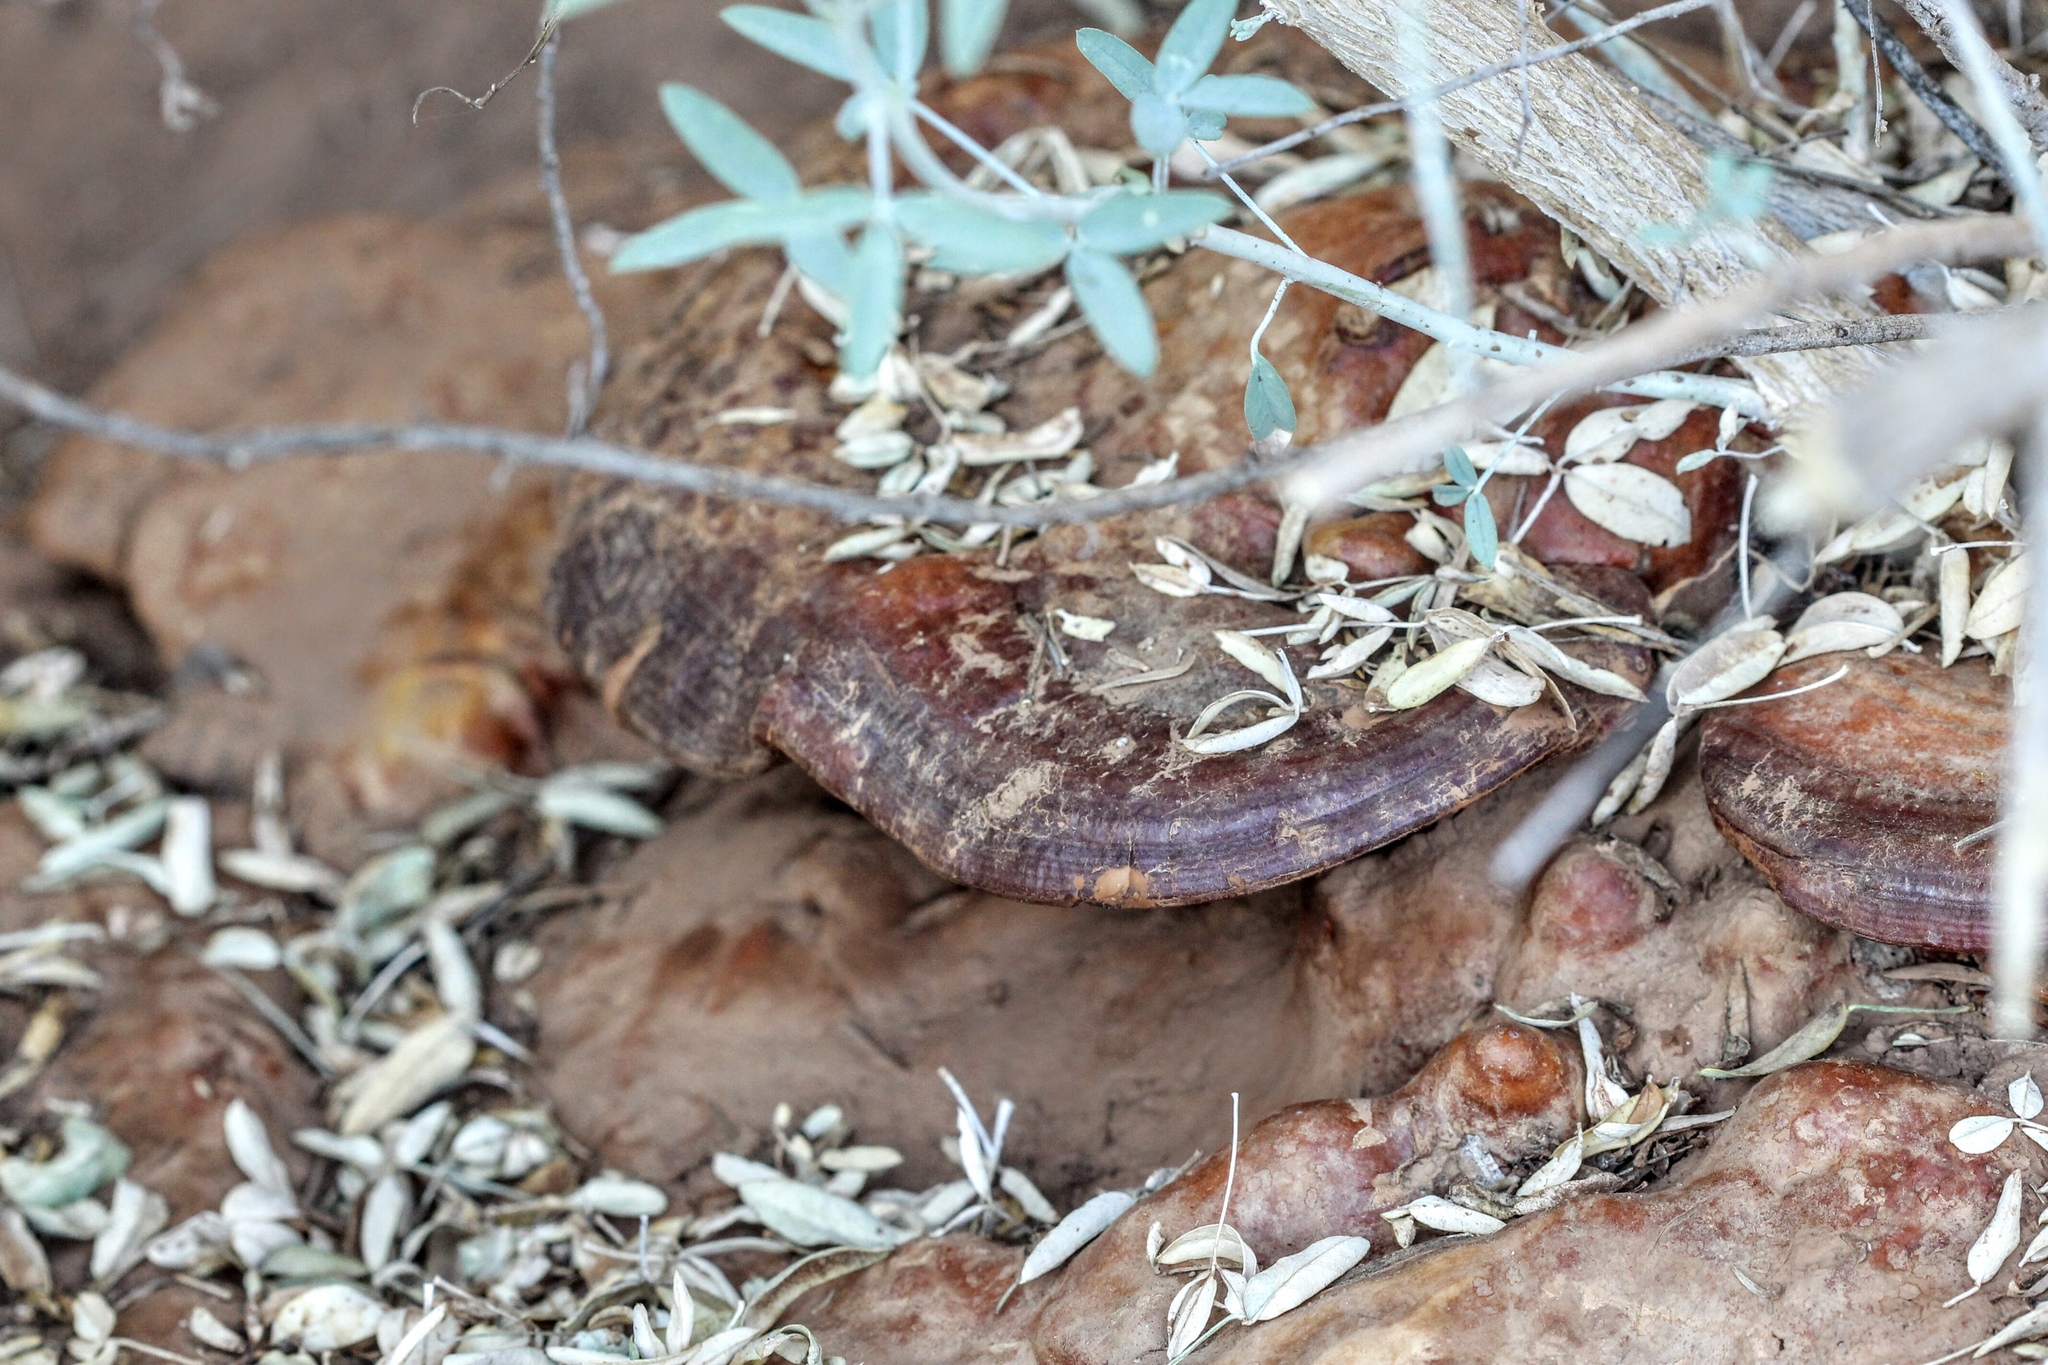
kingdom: Fungi
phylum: Basidiomycota
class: Agaricomycetes
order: Polyporales
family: Polyporaceae
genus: Ganoderma
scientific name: Ganoderma polychromum
